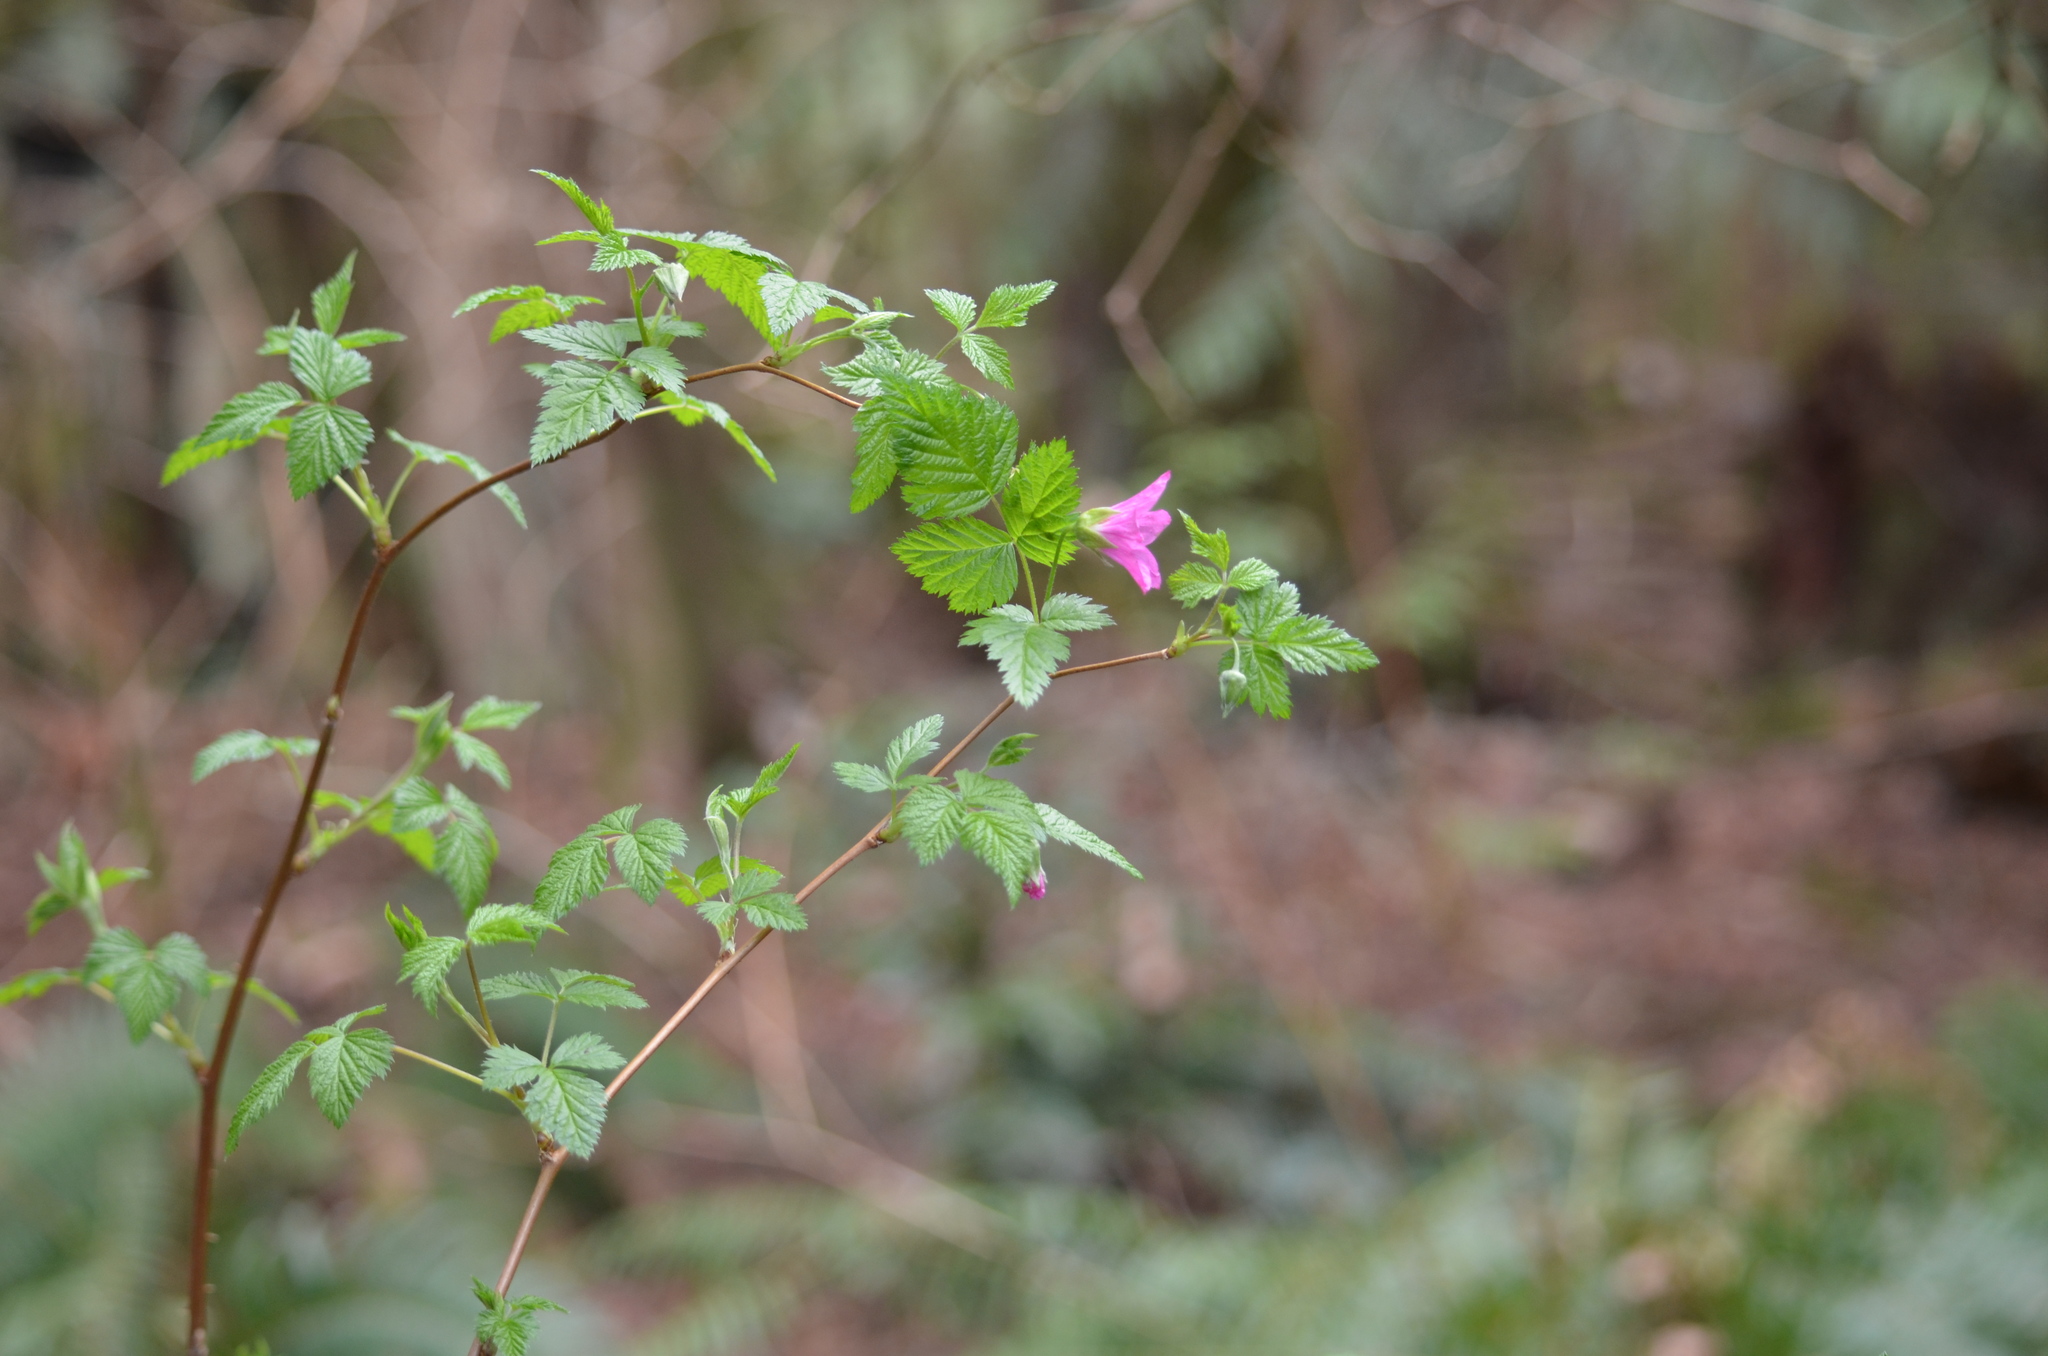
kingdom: Plantae
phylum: Tracheophyta
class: Magnoliopsida
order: Rosales
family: Rosaceae
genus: Rubus
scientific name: Rubus spectabilis
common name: Salmonberry
